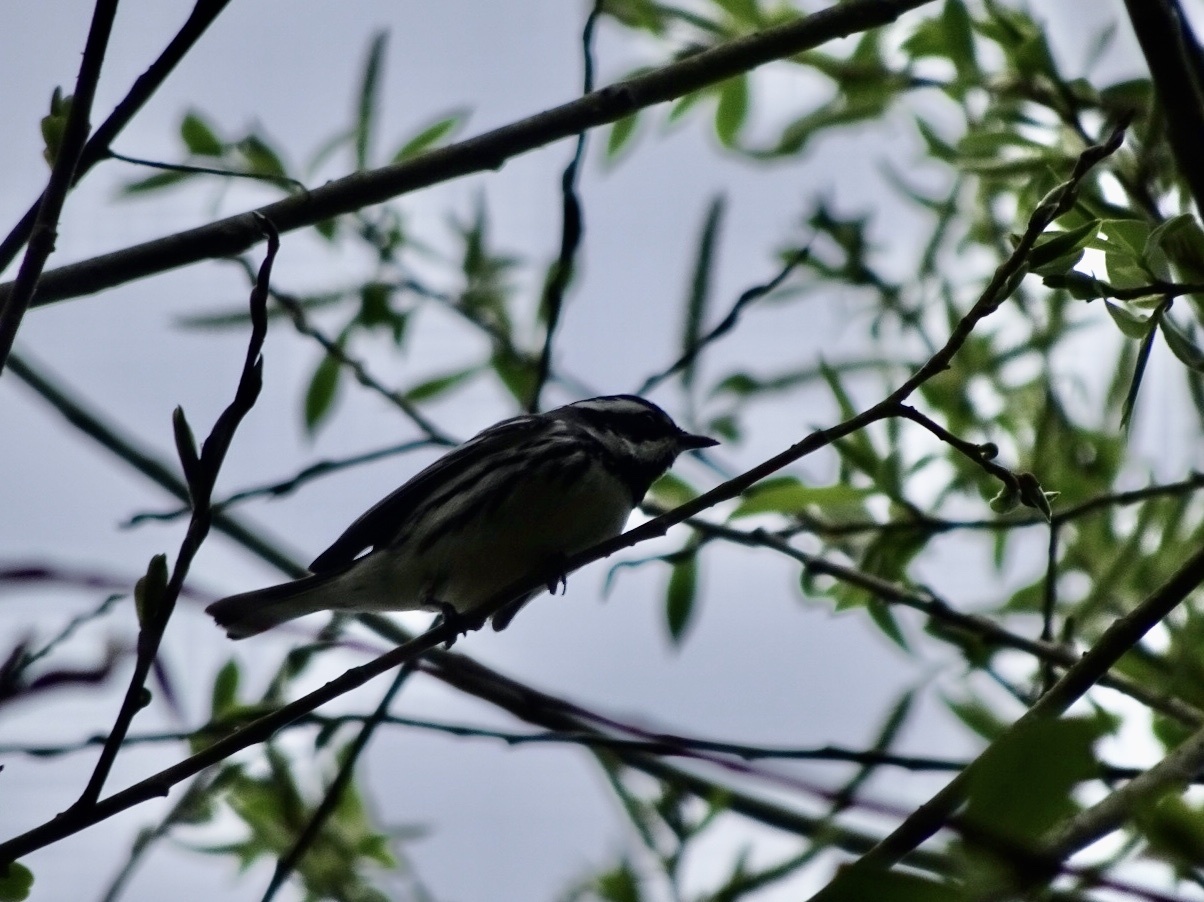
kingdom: Animalia
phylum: Chordata
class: Aves
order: Passeriformes
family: Parulidae
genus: Setophaga
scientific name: Setophaga nigrescens
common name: Black-throated gray warbler
